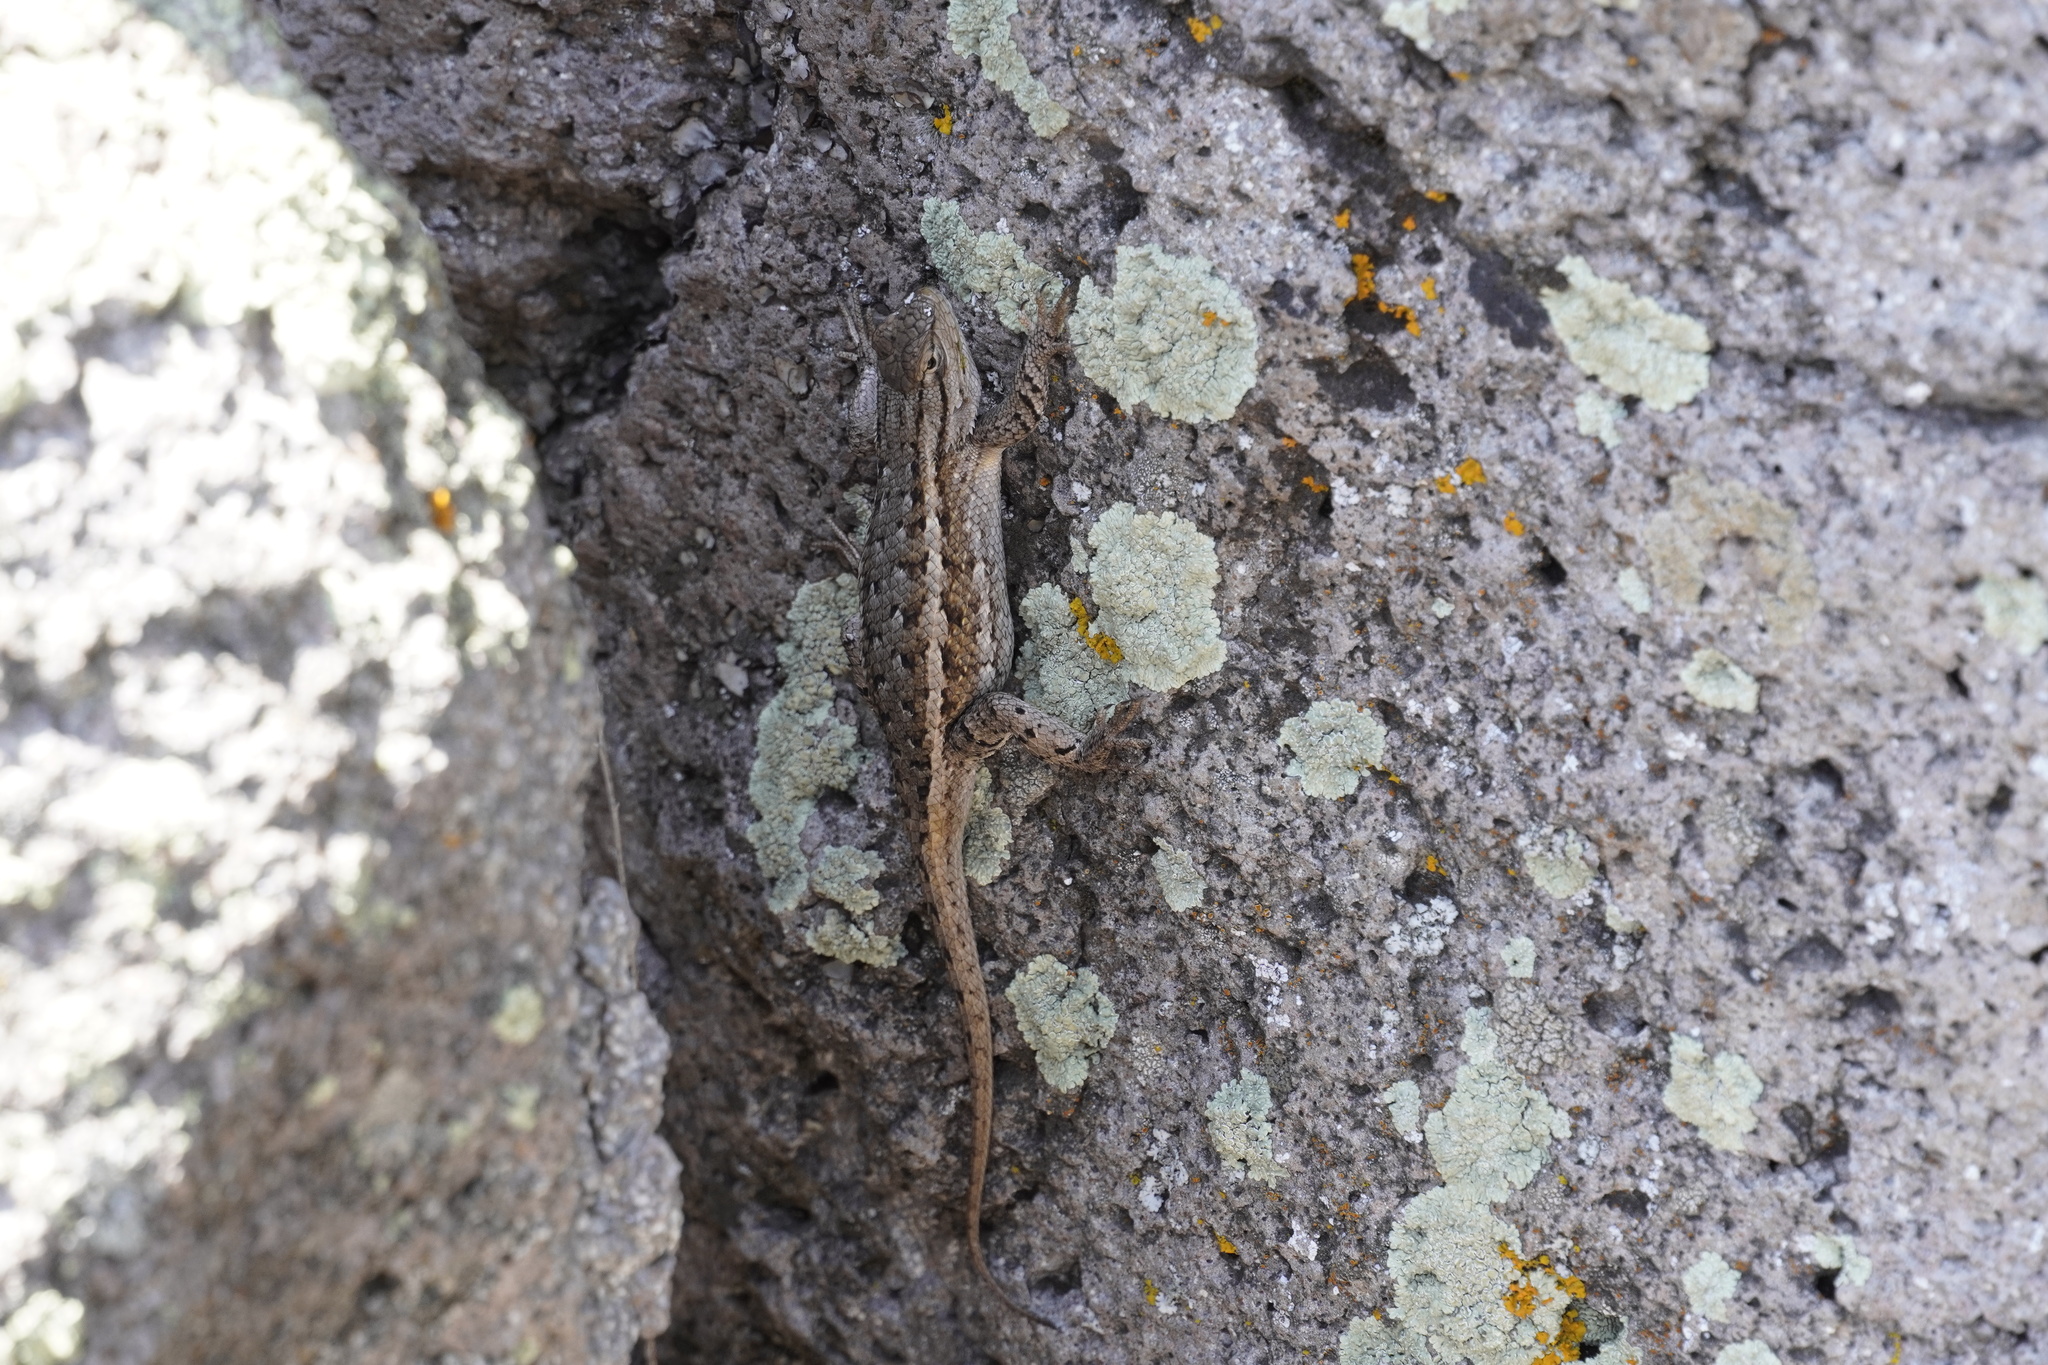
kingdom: Animalia
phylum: Chordata
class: Squamata
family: Phrynosomatidae
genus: Sceloporus
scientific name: Sceloporus tristichus
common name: Plateau fence lizard
